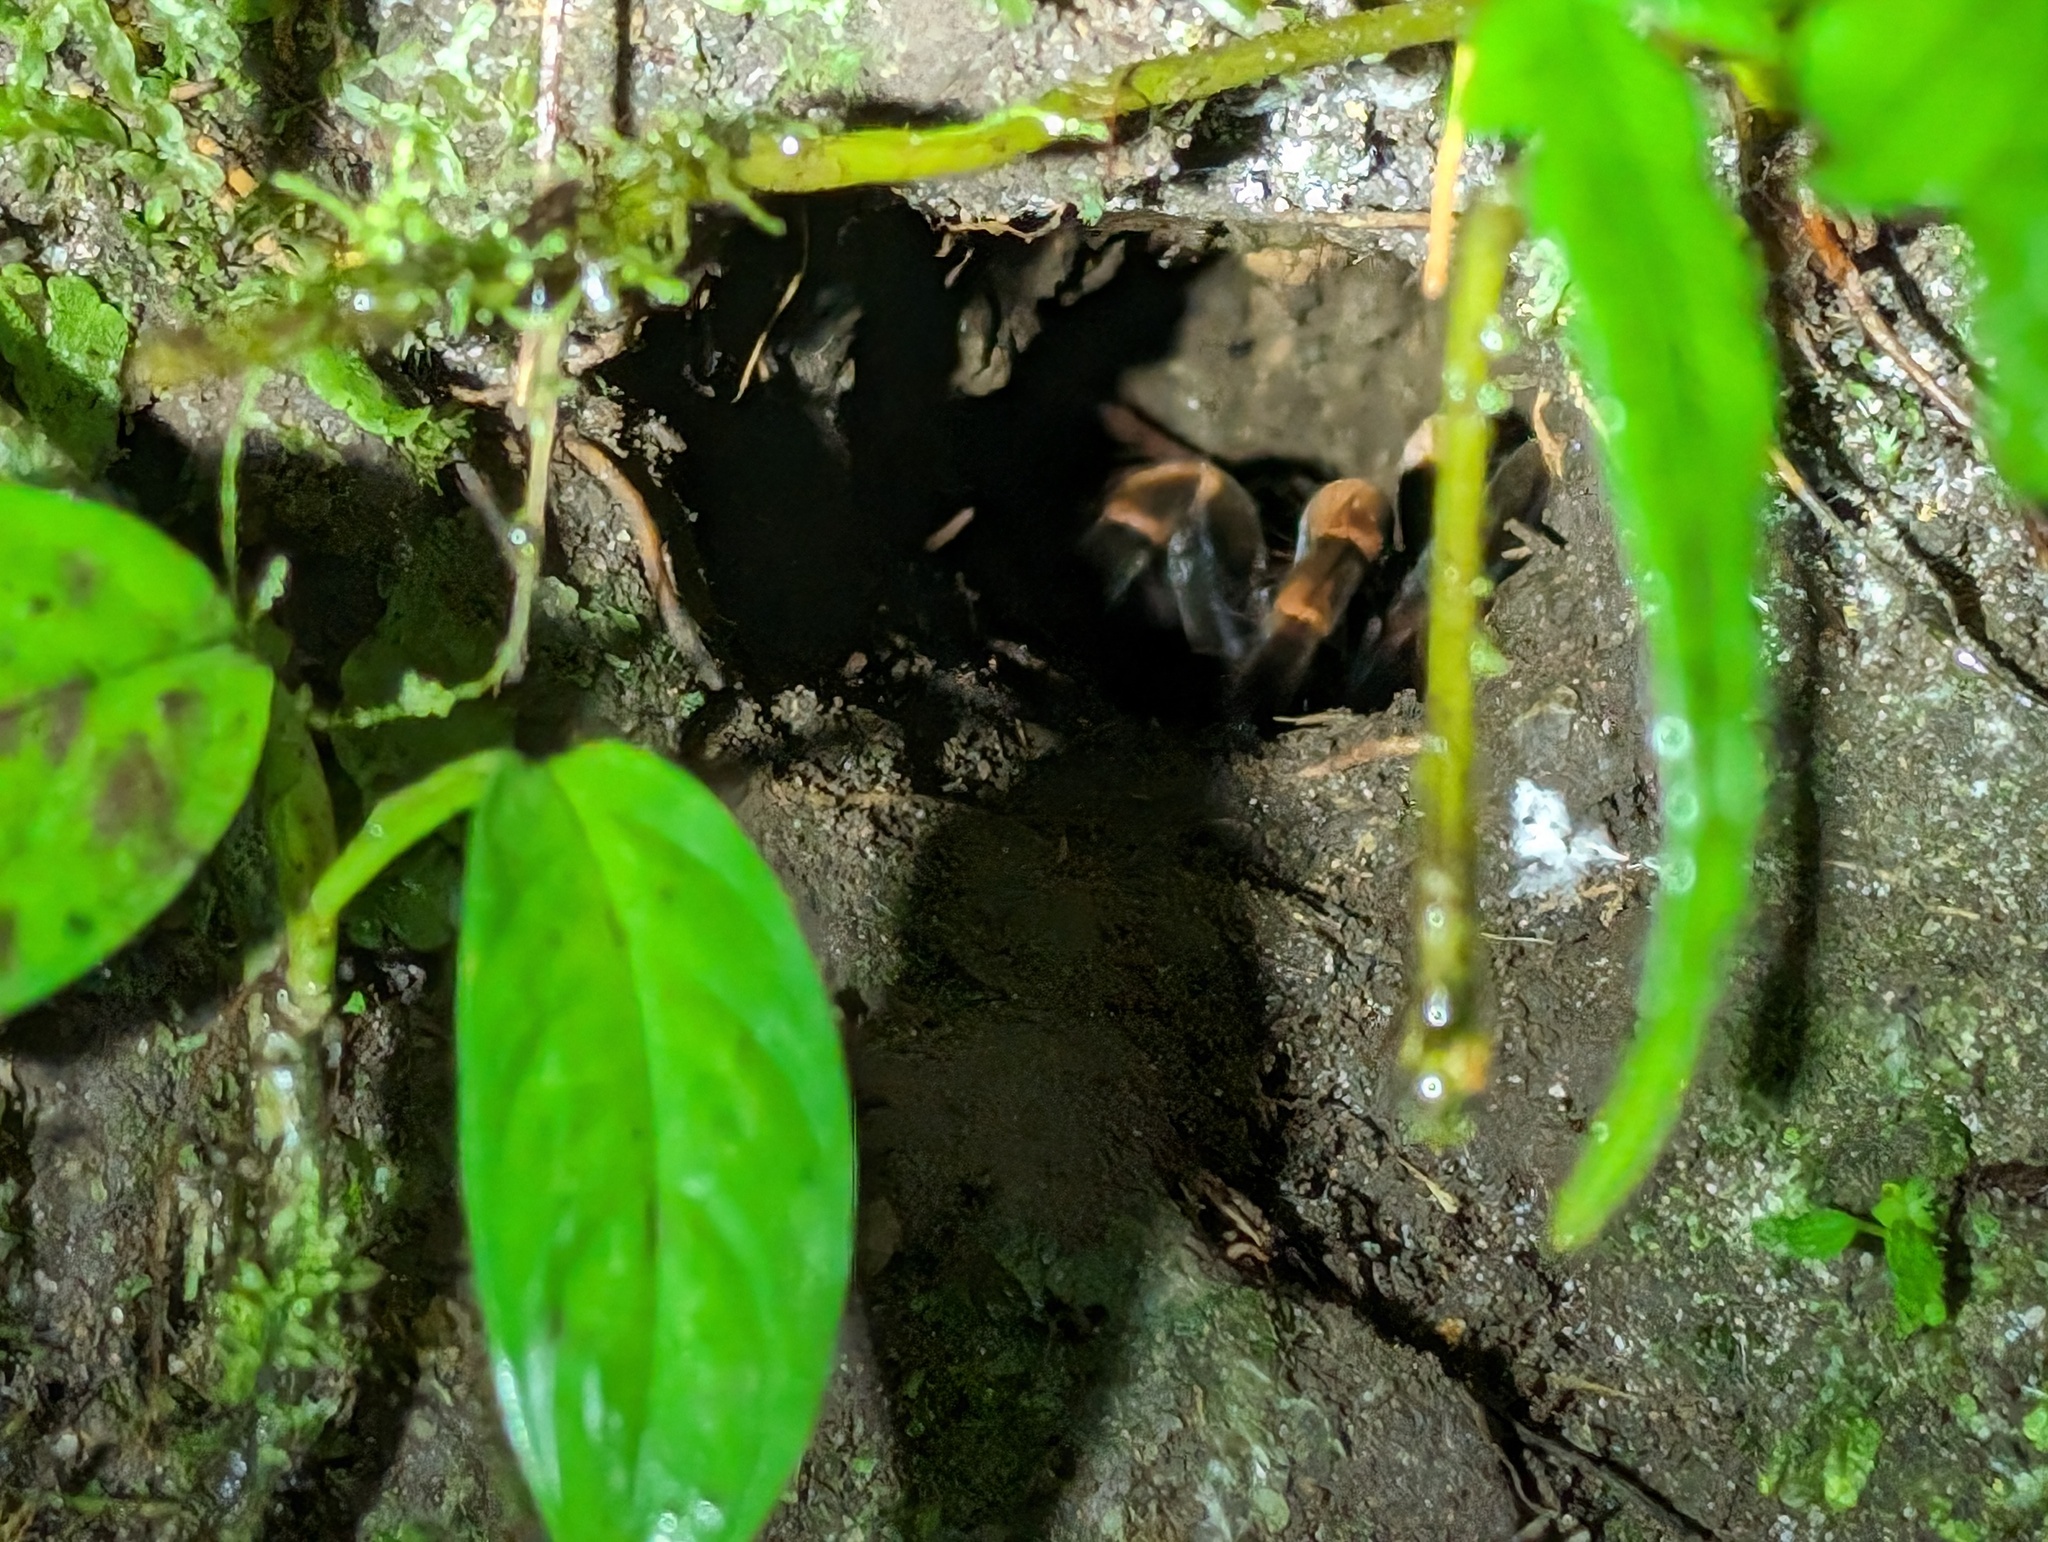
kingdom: Animalia
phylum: Arthropoda
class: Arachnida
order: Araneae
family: Theraphosidae
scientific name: Theraphosidae
